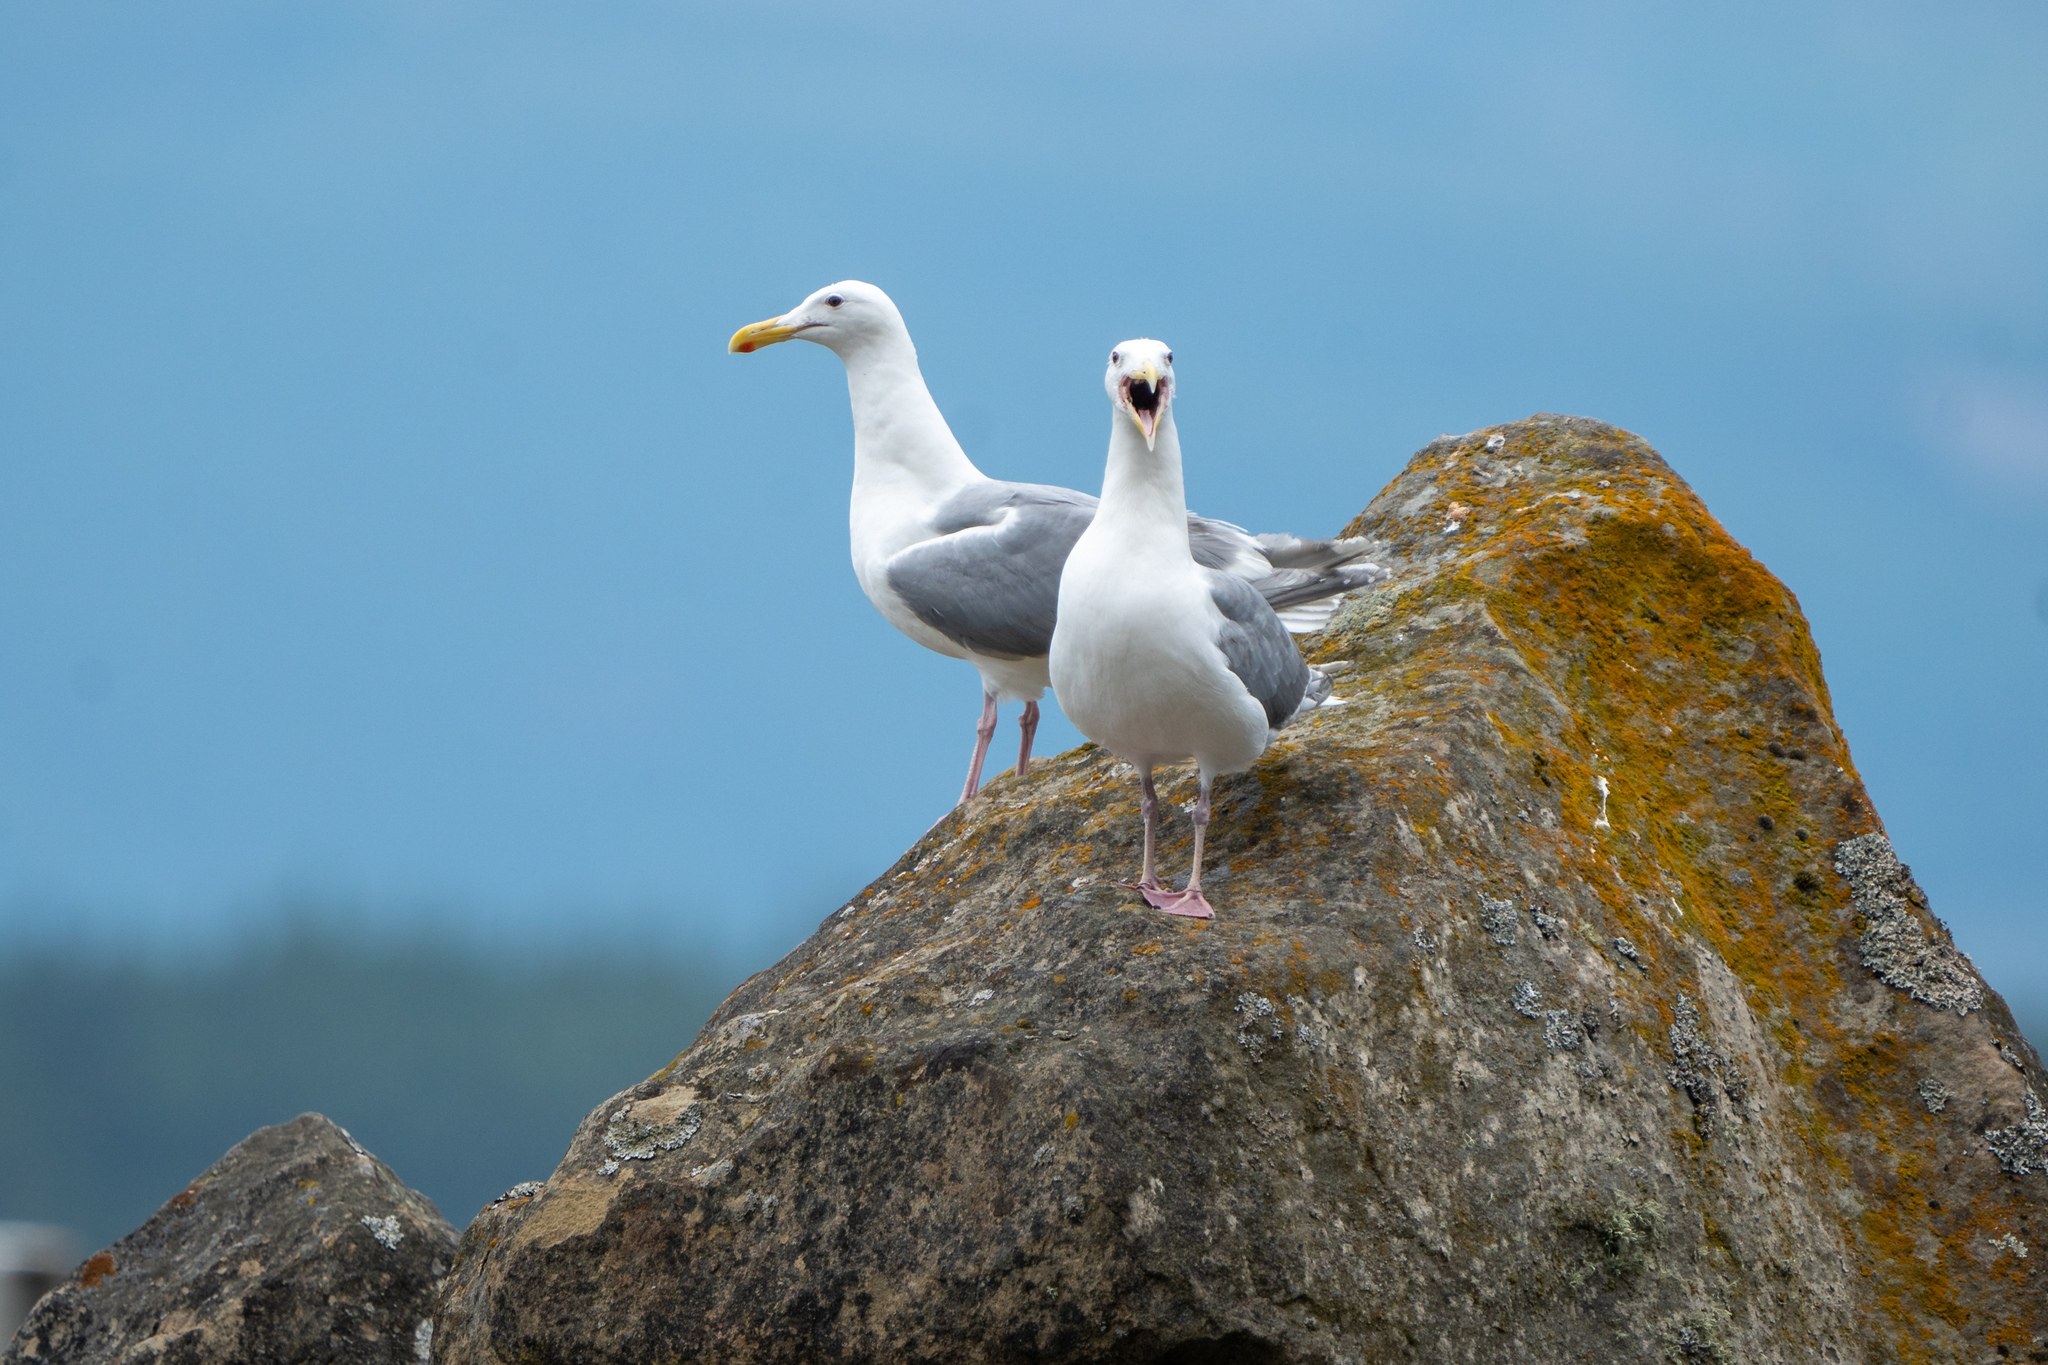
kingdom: Animalia
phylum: Chordata
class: Aves
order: Charadriiformes
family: Laridae
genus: Larus
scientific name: Larus glaucescens
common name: Glaucous-winged gull
